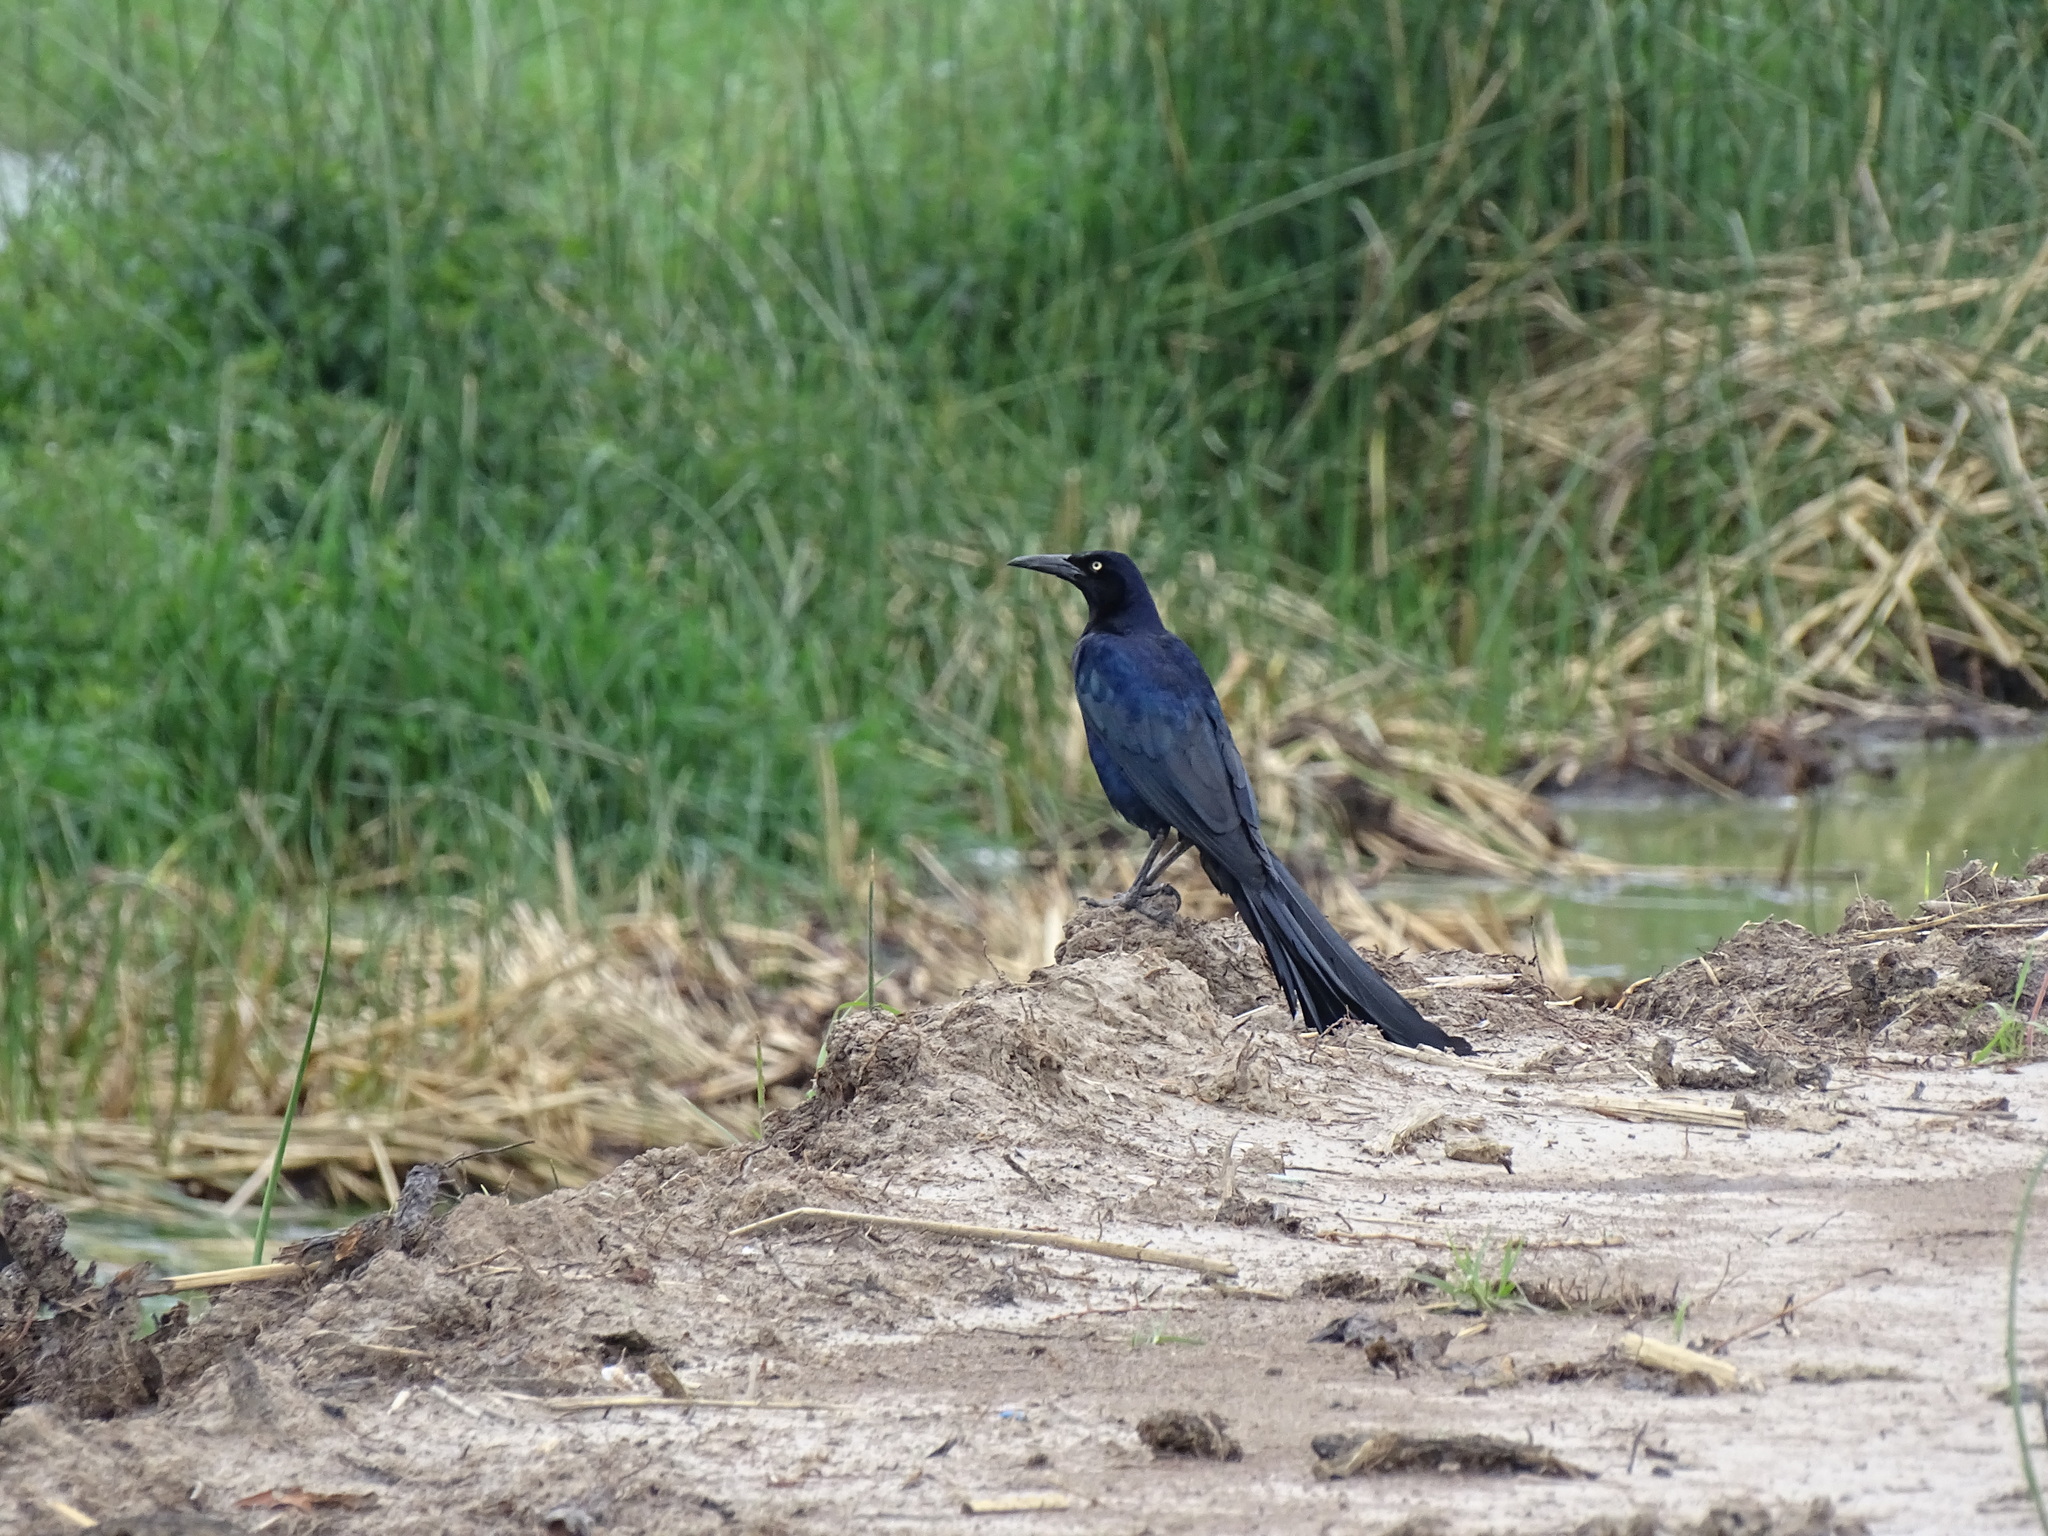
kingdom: Animalia
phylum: Chordata
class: Aves
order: Passeriformes
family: Icteridae
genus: Quiscalus
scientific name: Quiscalus mexicanus
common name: Great-tailed grackle
